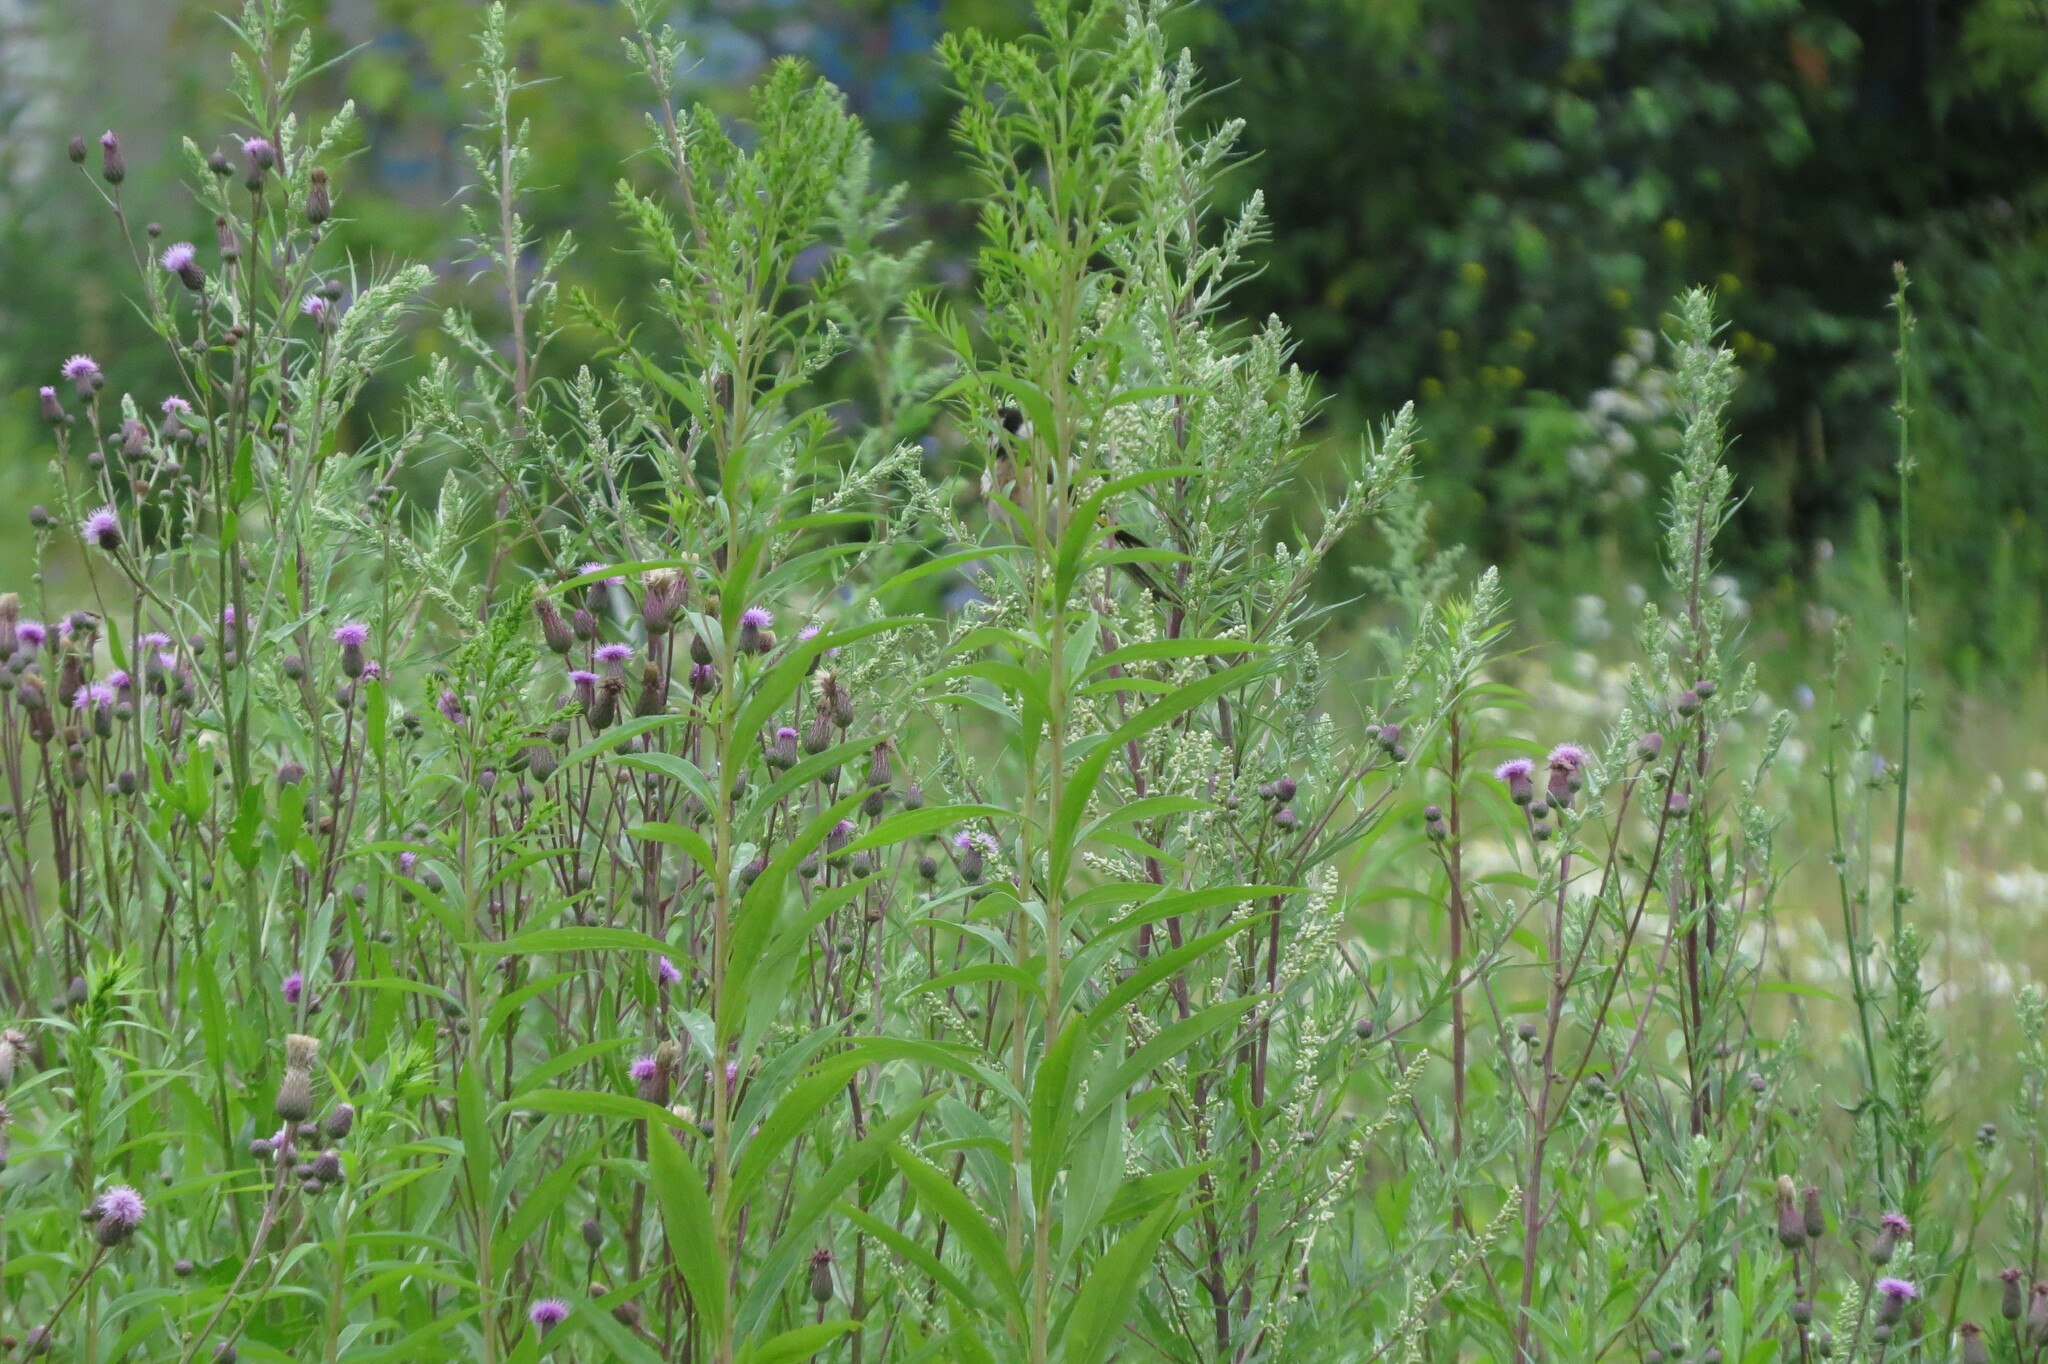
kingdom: Animalia
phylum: Chordata
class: Aves
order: Passeriformes
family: Fringillidae
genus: Carduelis
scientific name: Carduelis carduelis
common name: European goldfinch
